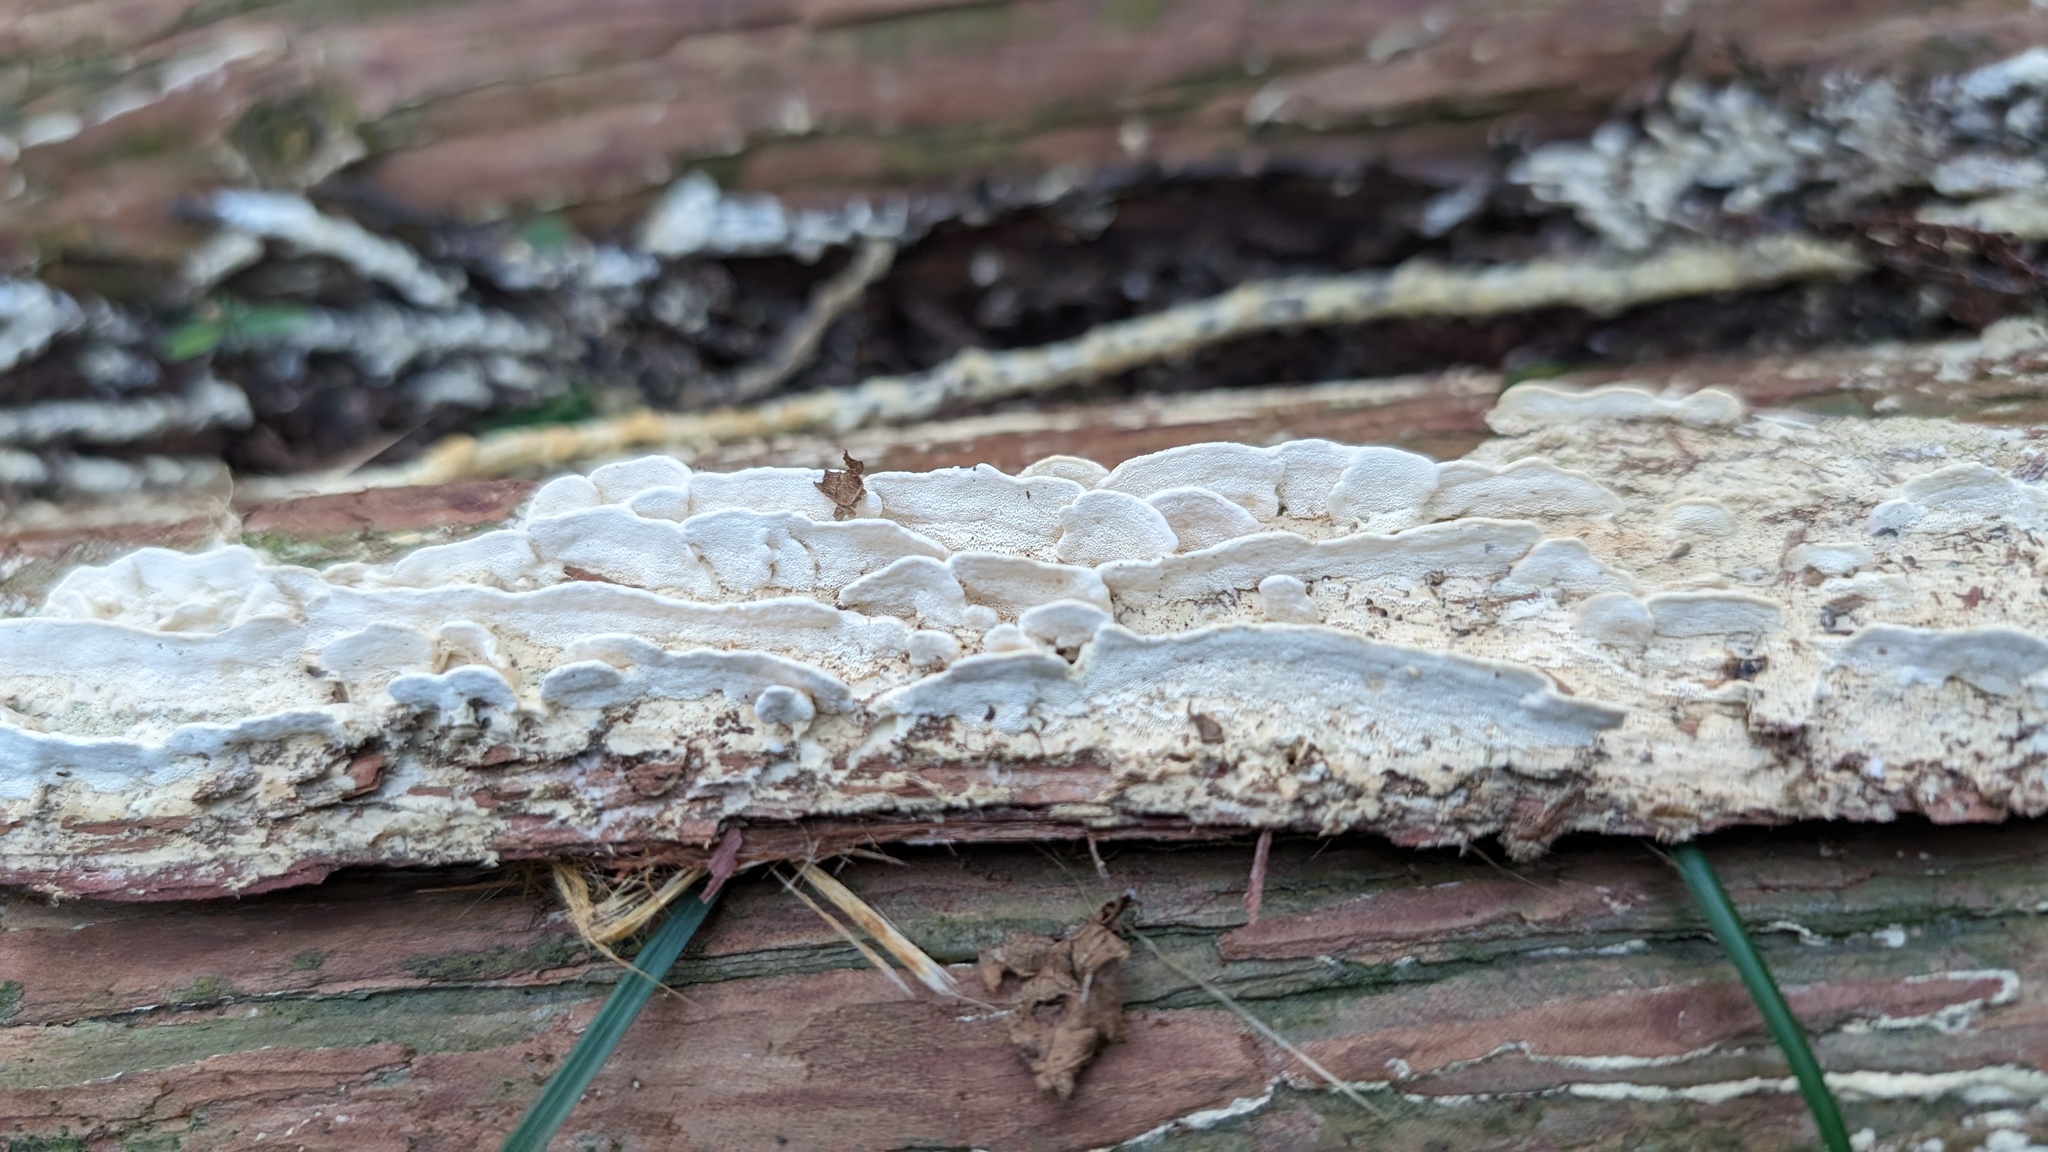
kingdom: Fungi
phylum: Basidiomycota
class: Agaricomycetes
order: Hymenochaetales
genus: Cyanotrama
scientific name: Cyanotrama
